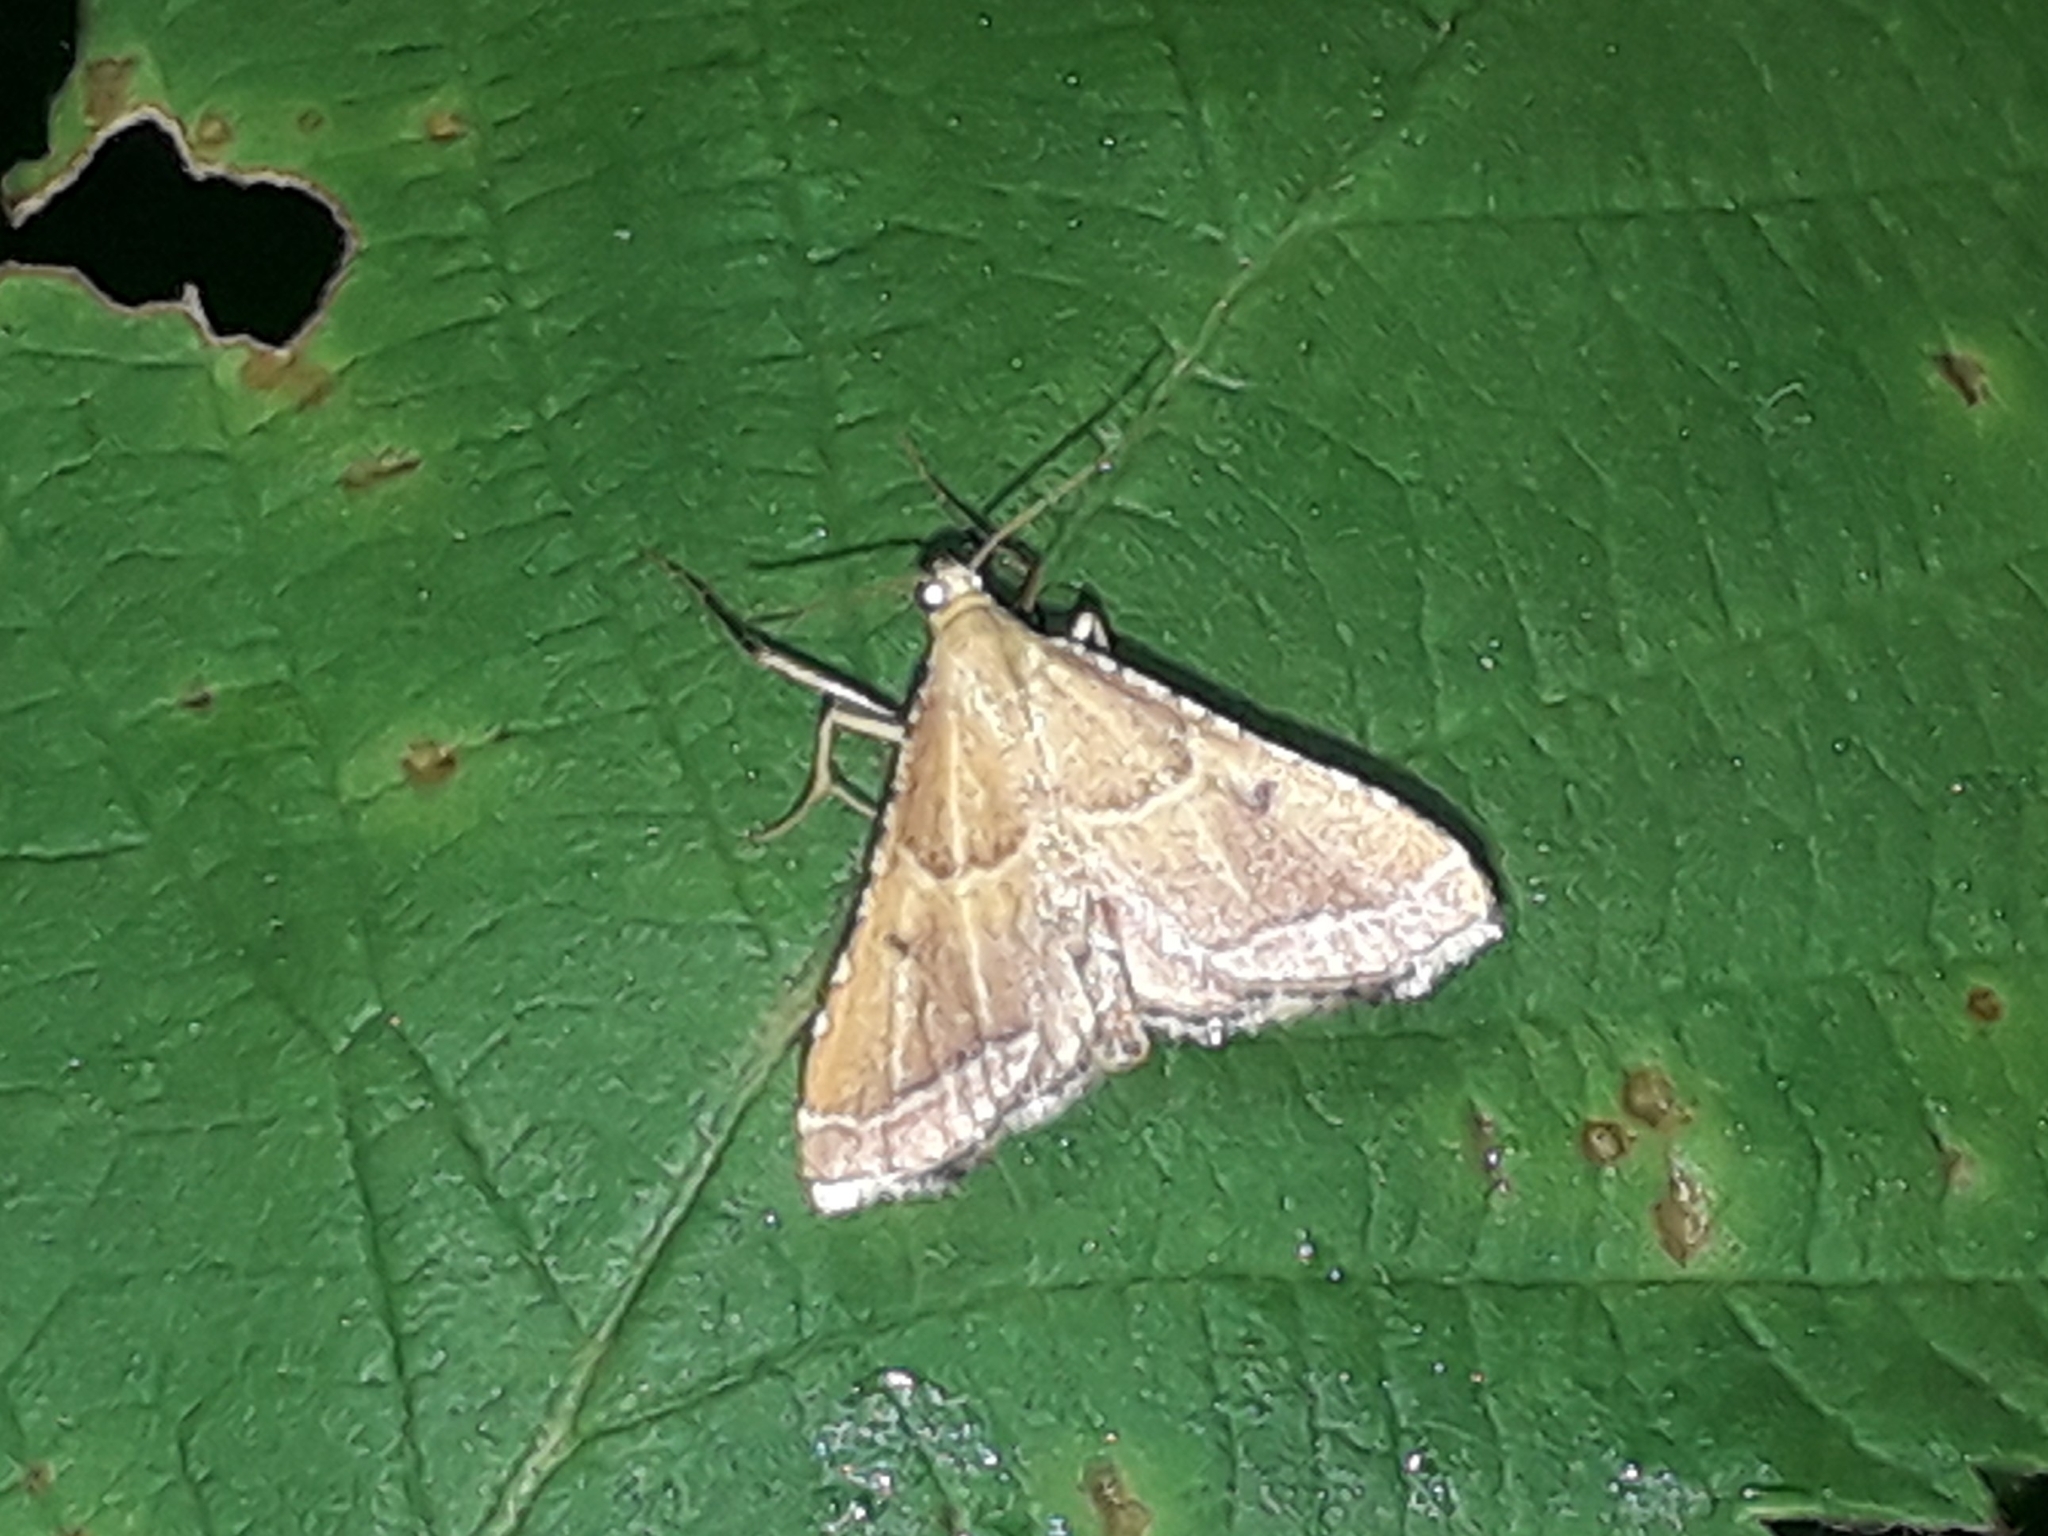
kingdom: Animalia
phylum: Arthropoda
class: Insecta
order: Lepidoptera
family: Pyralidae
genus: Endotricha
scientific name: Endotricha flammealis
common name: Rosy tabby
